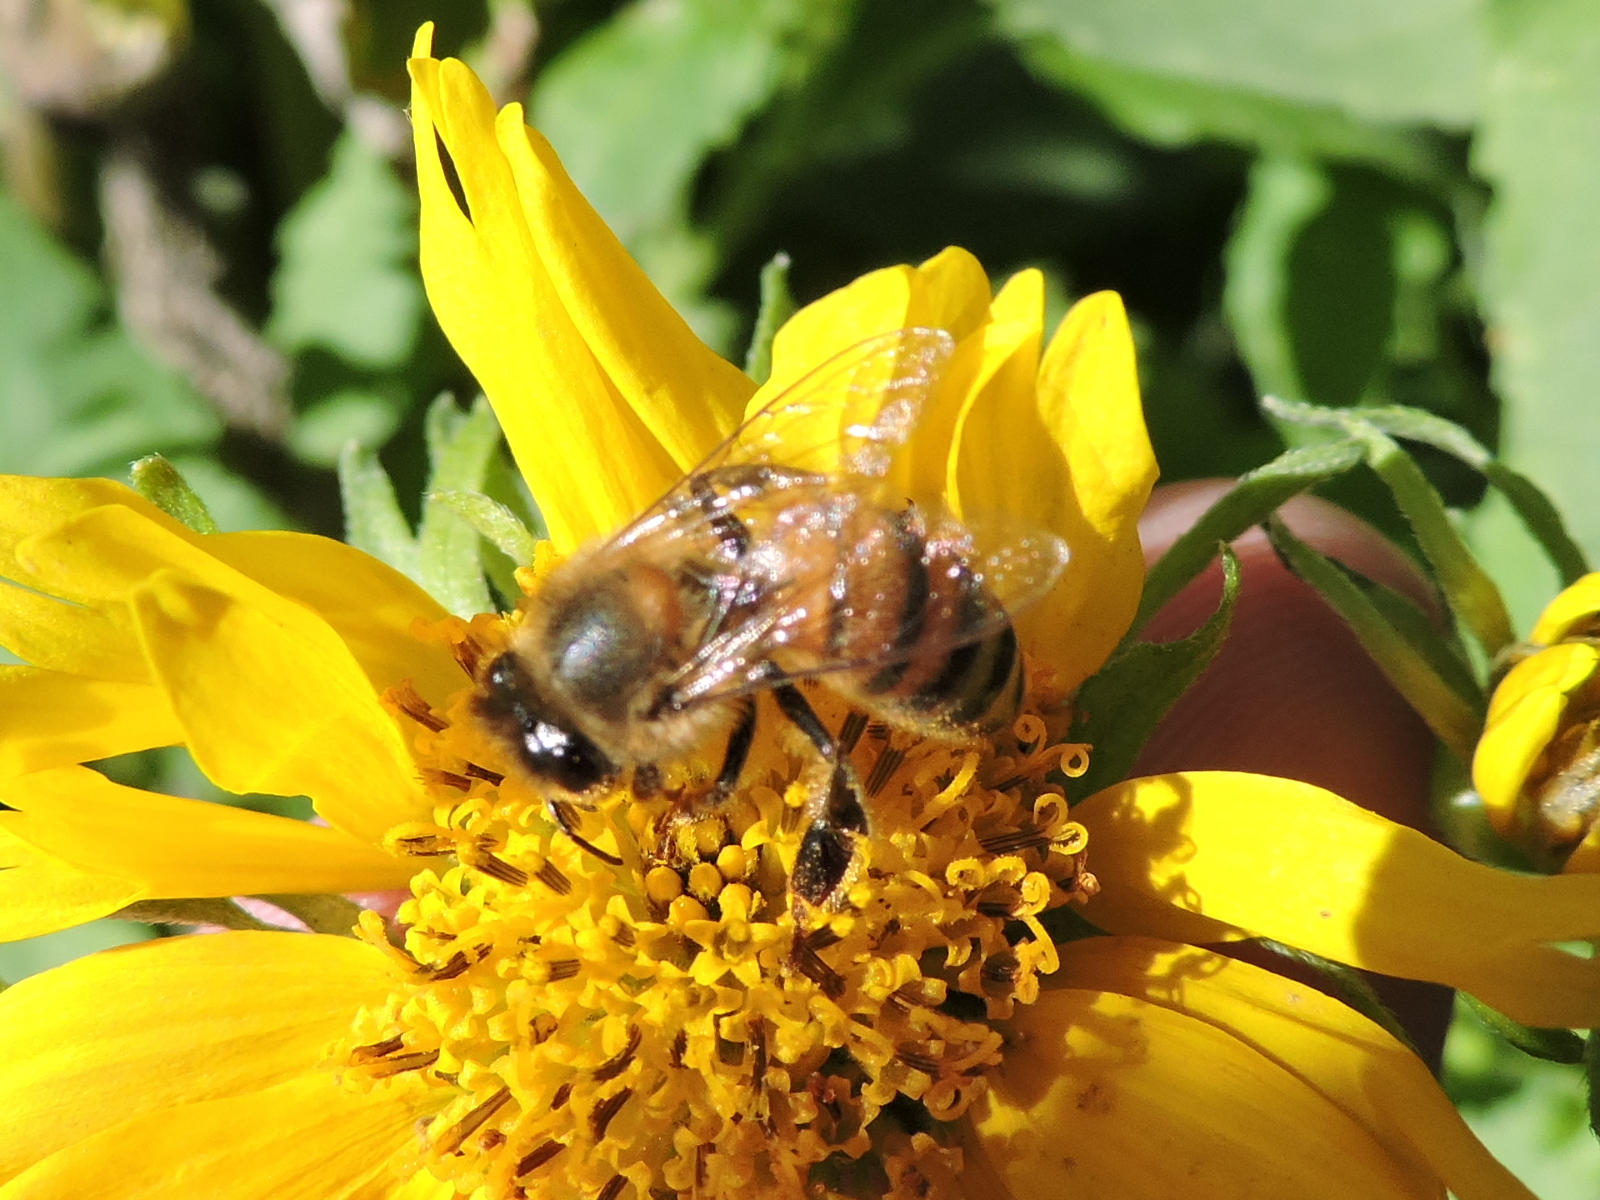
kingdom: Animalia
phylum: Arthropoda
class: Insecta
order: Hymenoptera
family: Apidae
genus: Apis
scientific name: Apis mellifera
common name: Honey bee
